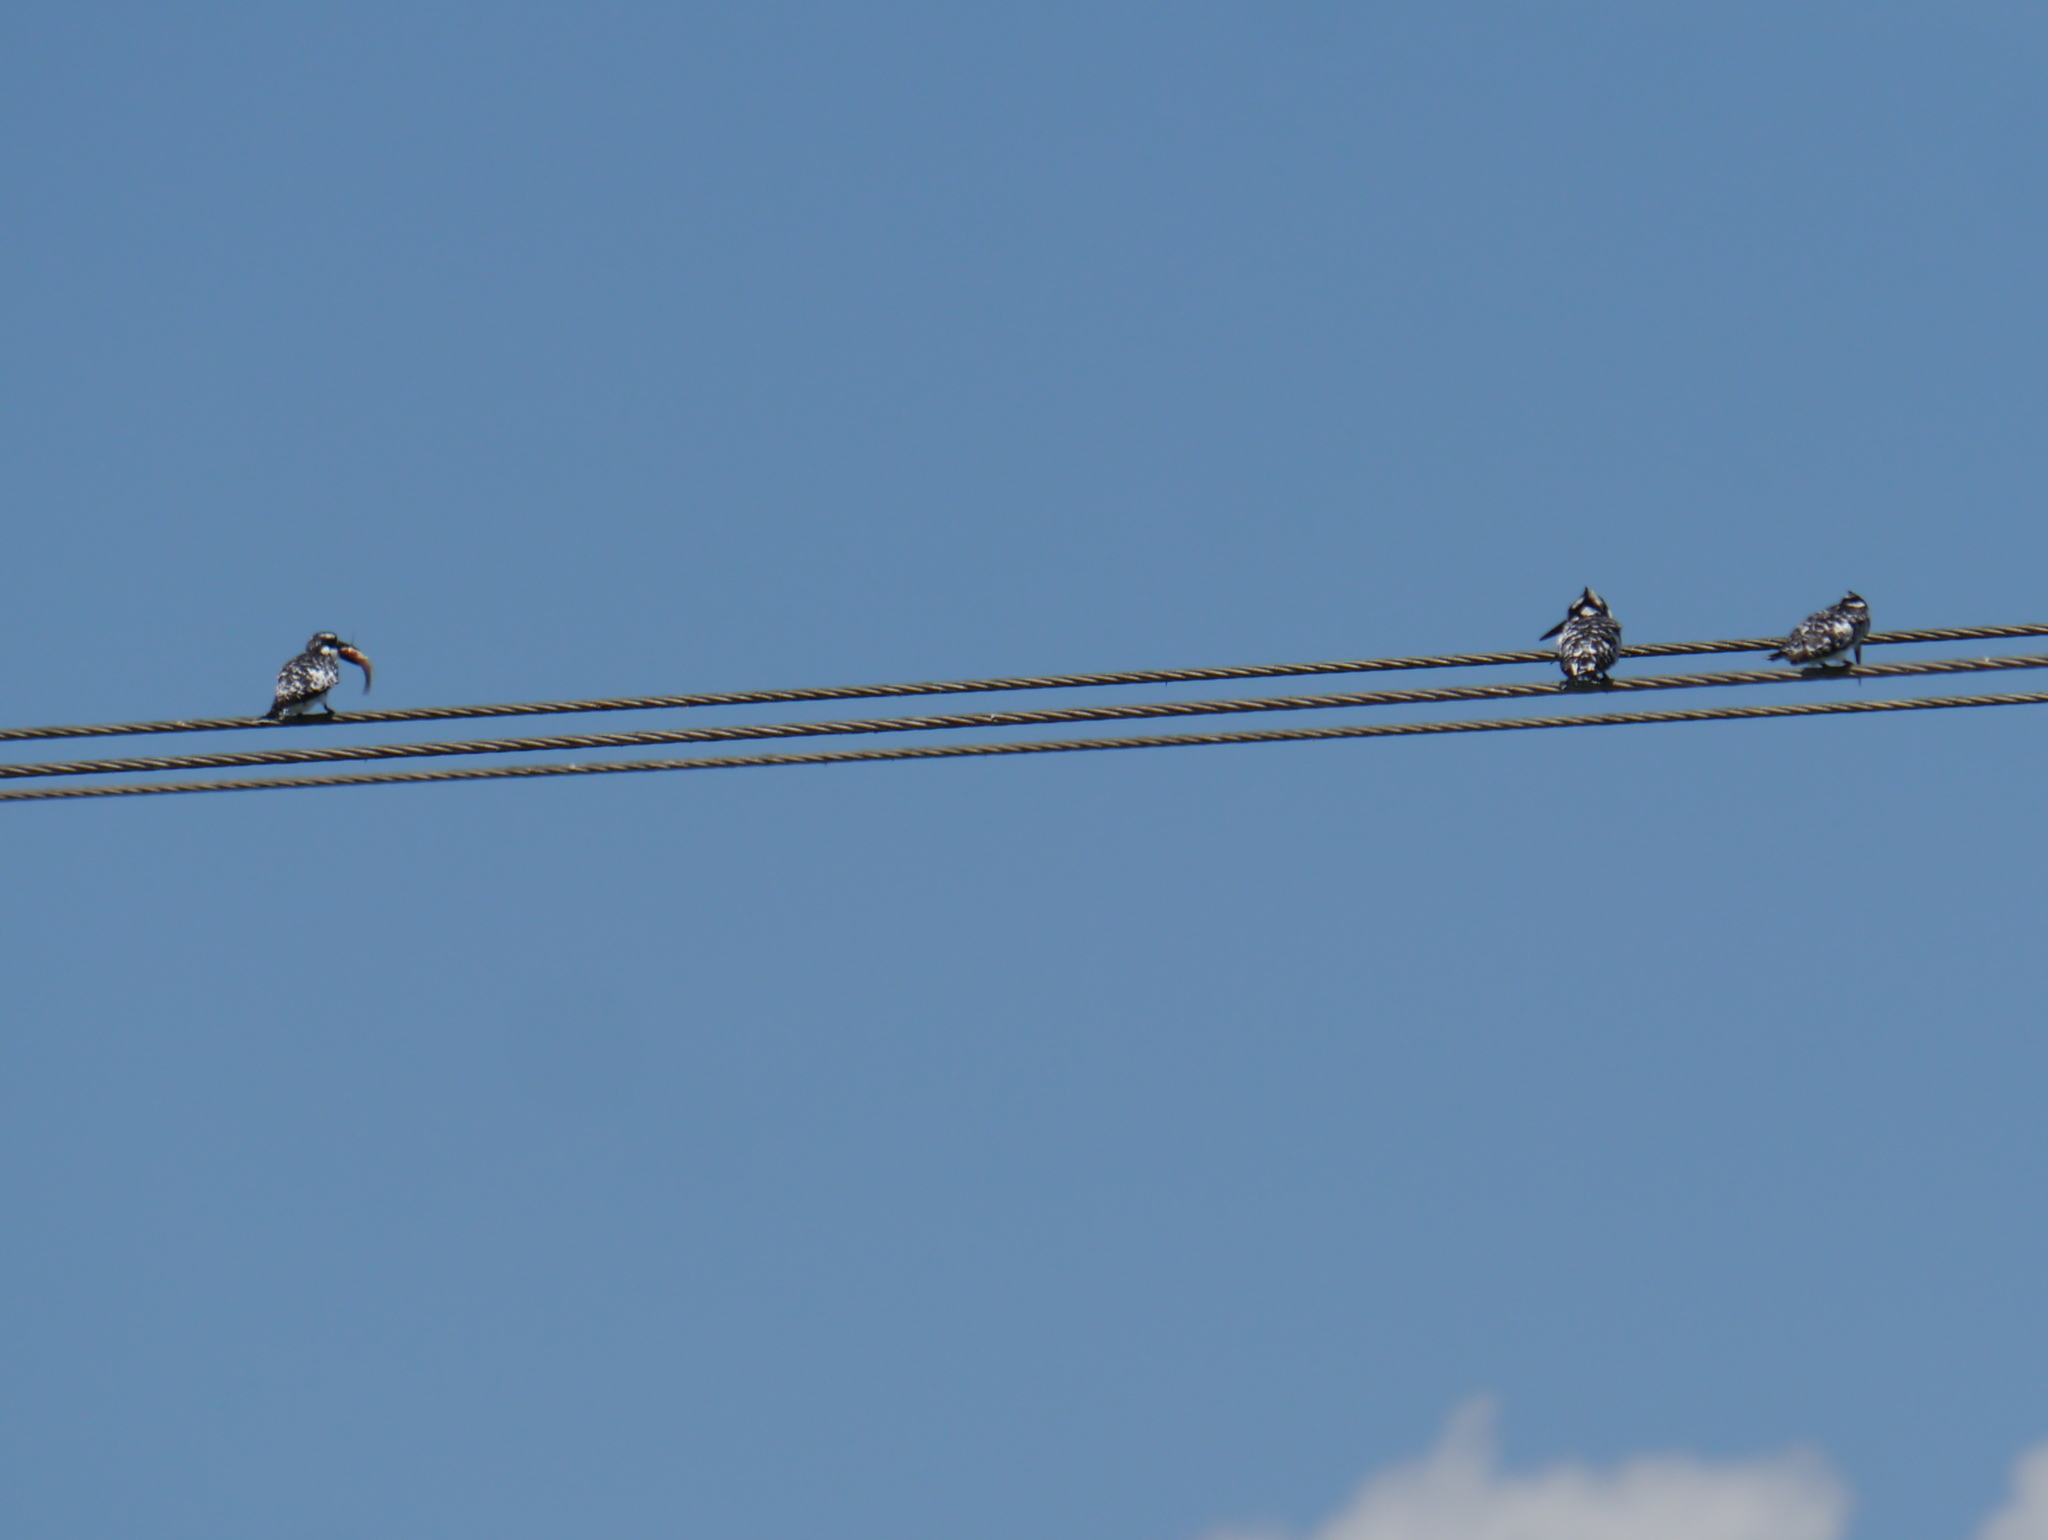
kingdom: Animalia
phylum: Chordata
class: Aves
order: Coraciiformes
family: Alcedinidae
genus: Ceryle
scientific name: Ceryle rudis
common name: Pied kingfisher
